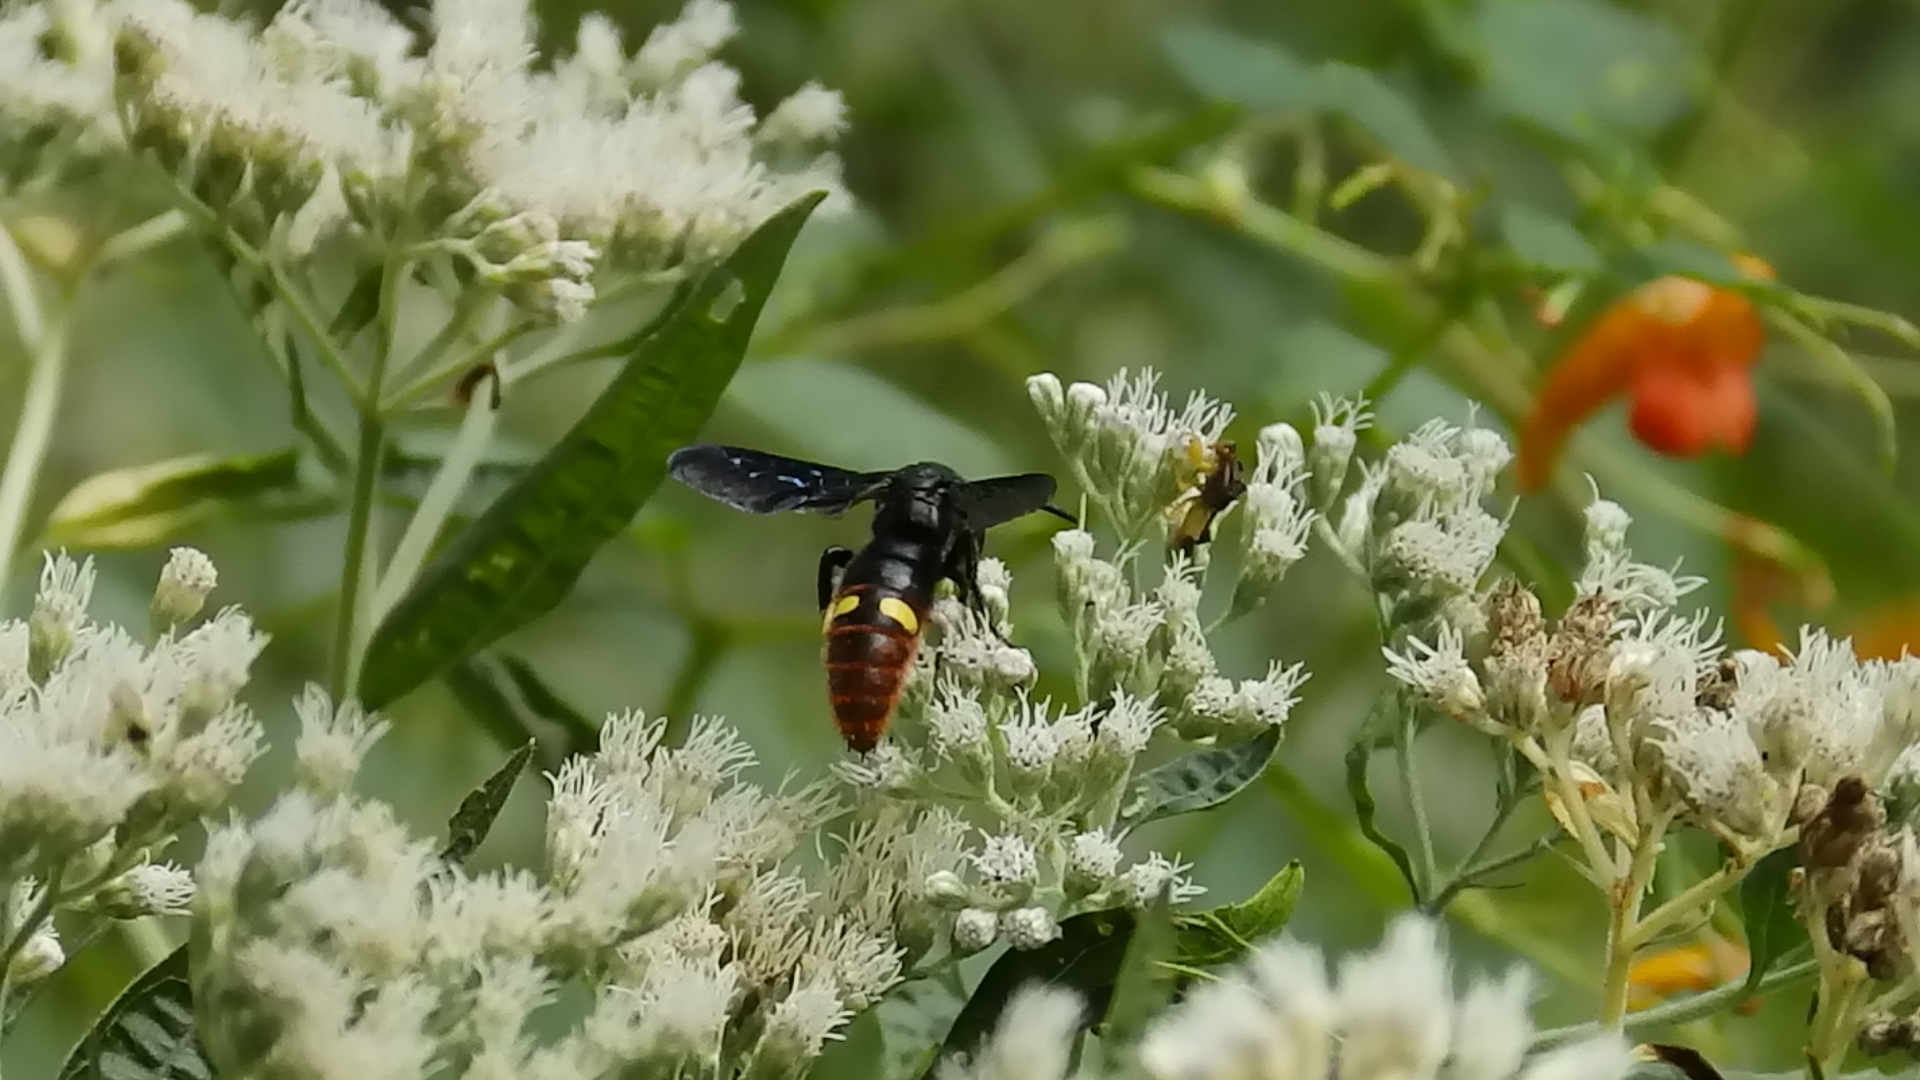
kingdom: Animalia
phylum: Arthropoda
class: Insecta
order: Hymenoptera
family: Scoliidae
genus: Scolia
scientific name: Scolia dubia
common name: Blue-winged scoliid wasp
